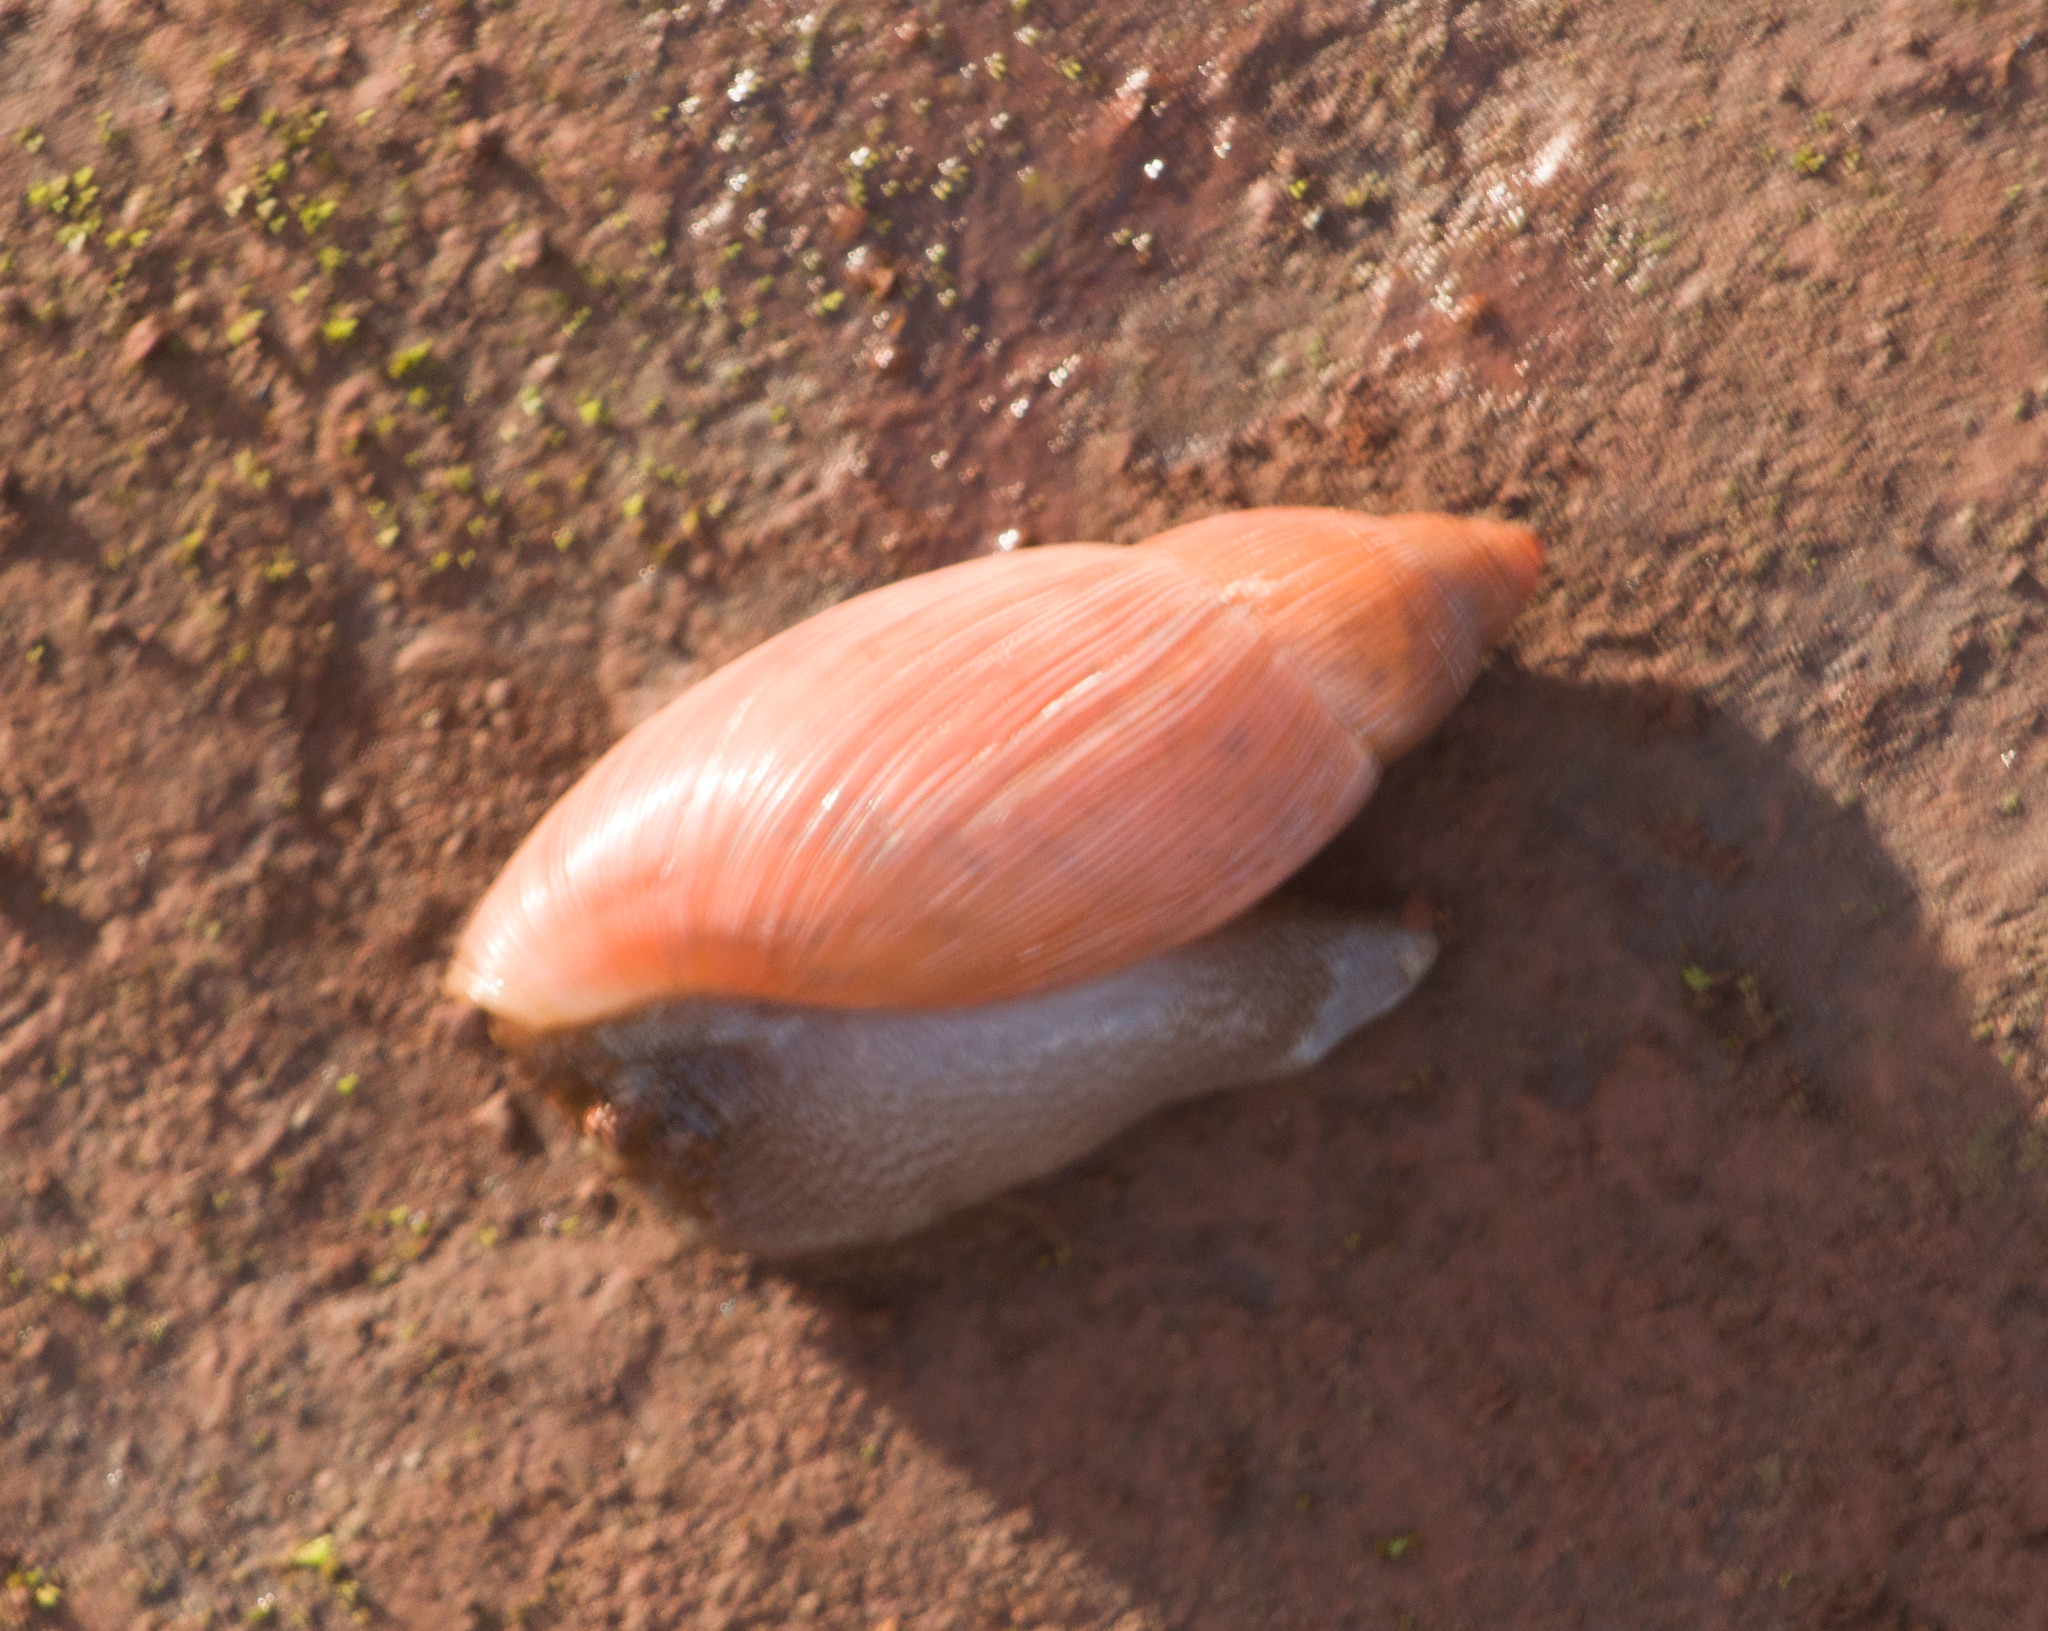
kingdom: Animalia
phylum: Mollusca
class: Gastropoda
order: Stylommatophora
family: Spiraxidae
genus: Euglandina
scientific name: Euglandina rosea
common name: Rosy wolfsnail
